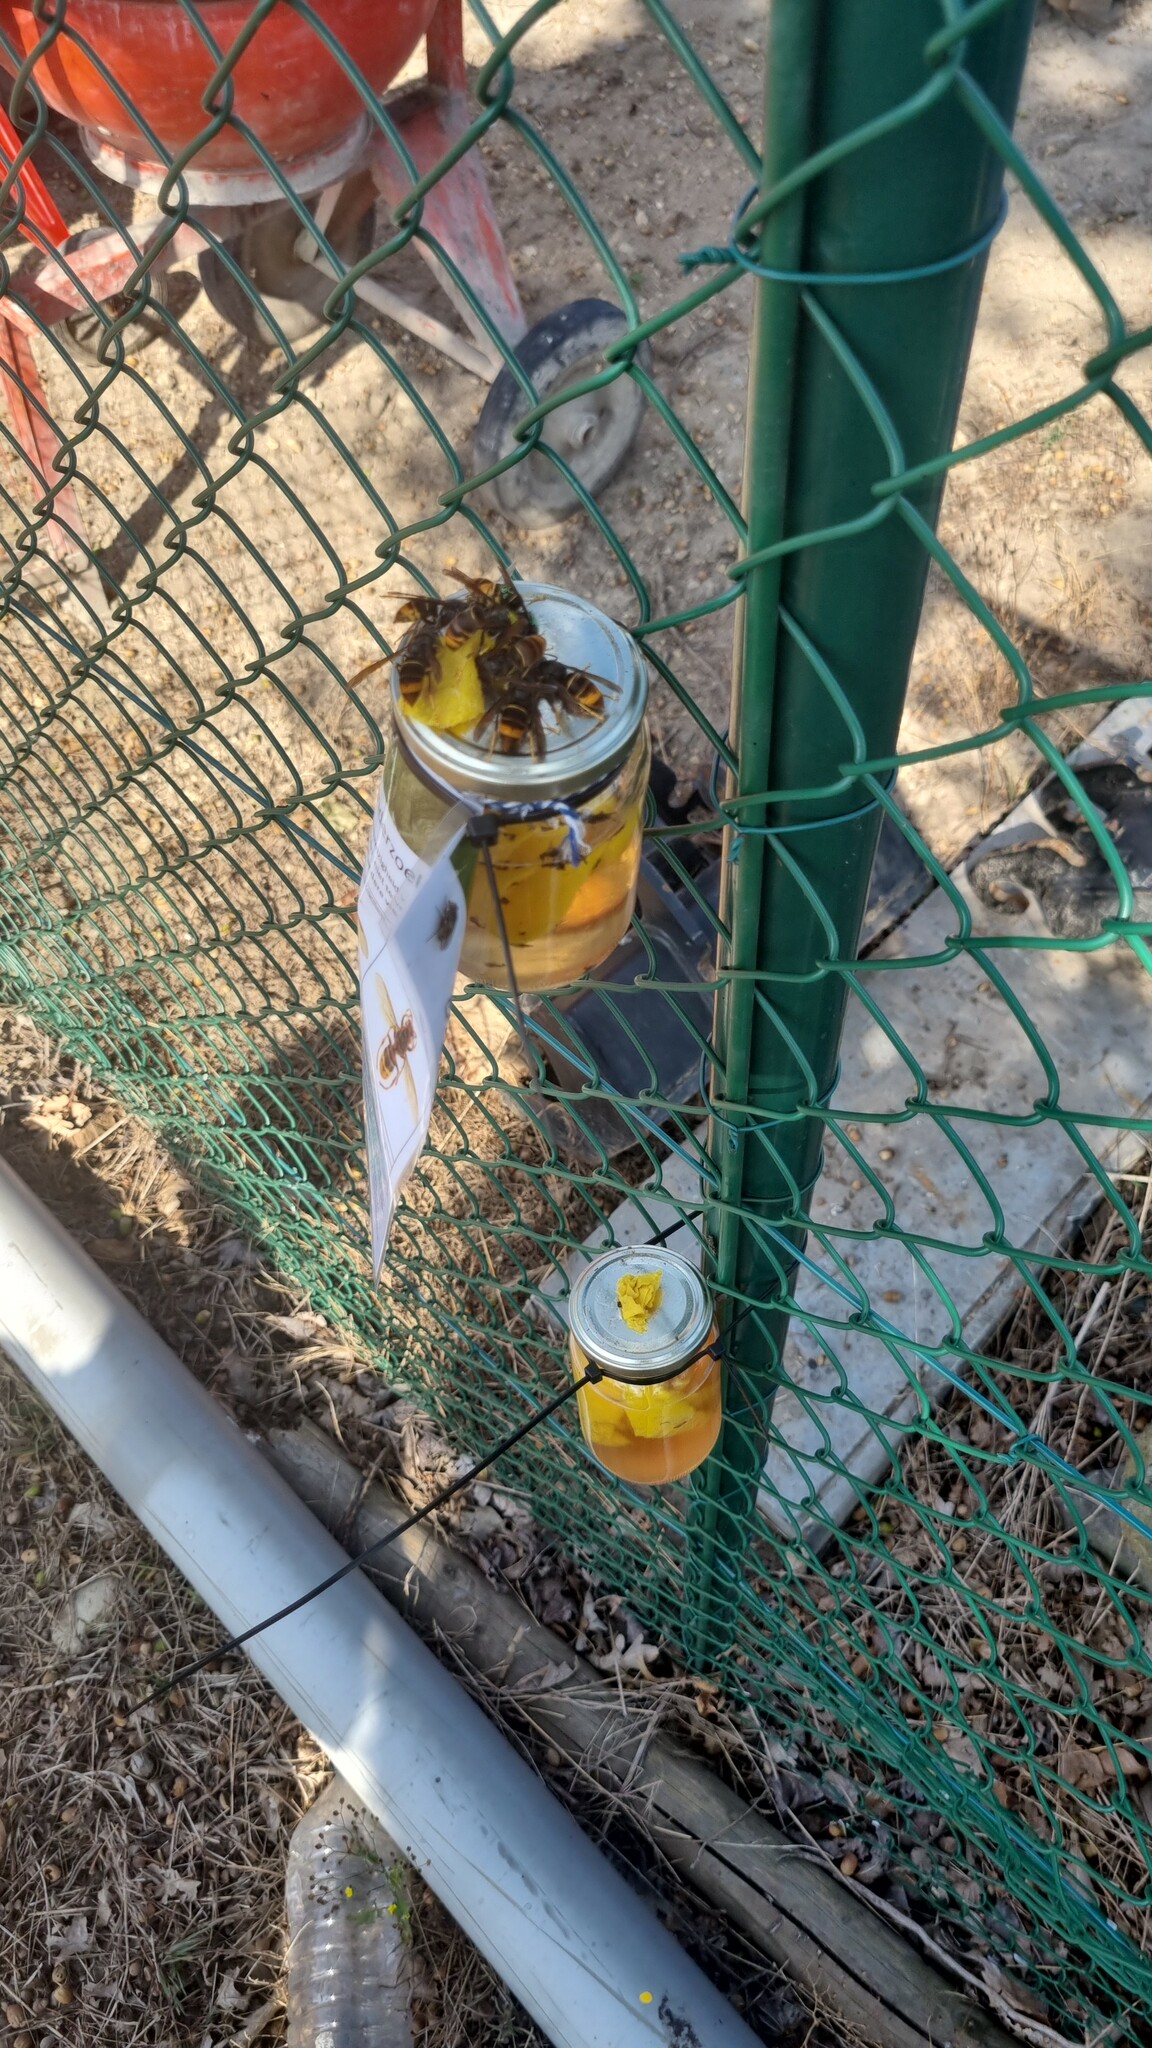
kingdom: Animalia
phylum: Arthropoda
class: Insecta
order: Hymenoptera
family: Vespidae
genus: Vespa
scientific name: Vespa velutina
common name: Asian hornet
